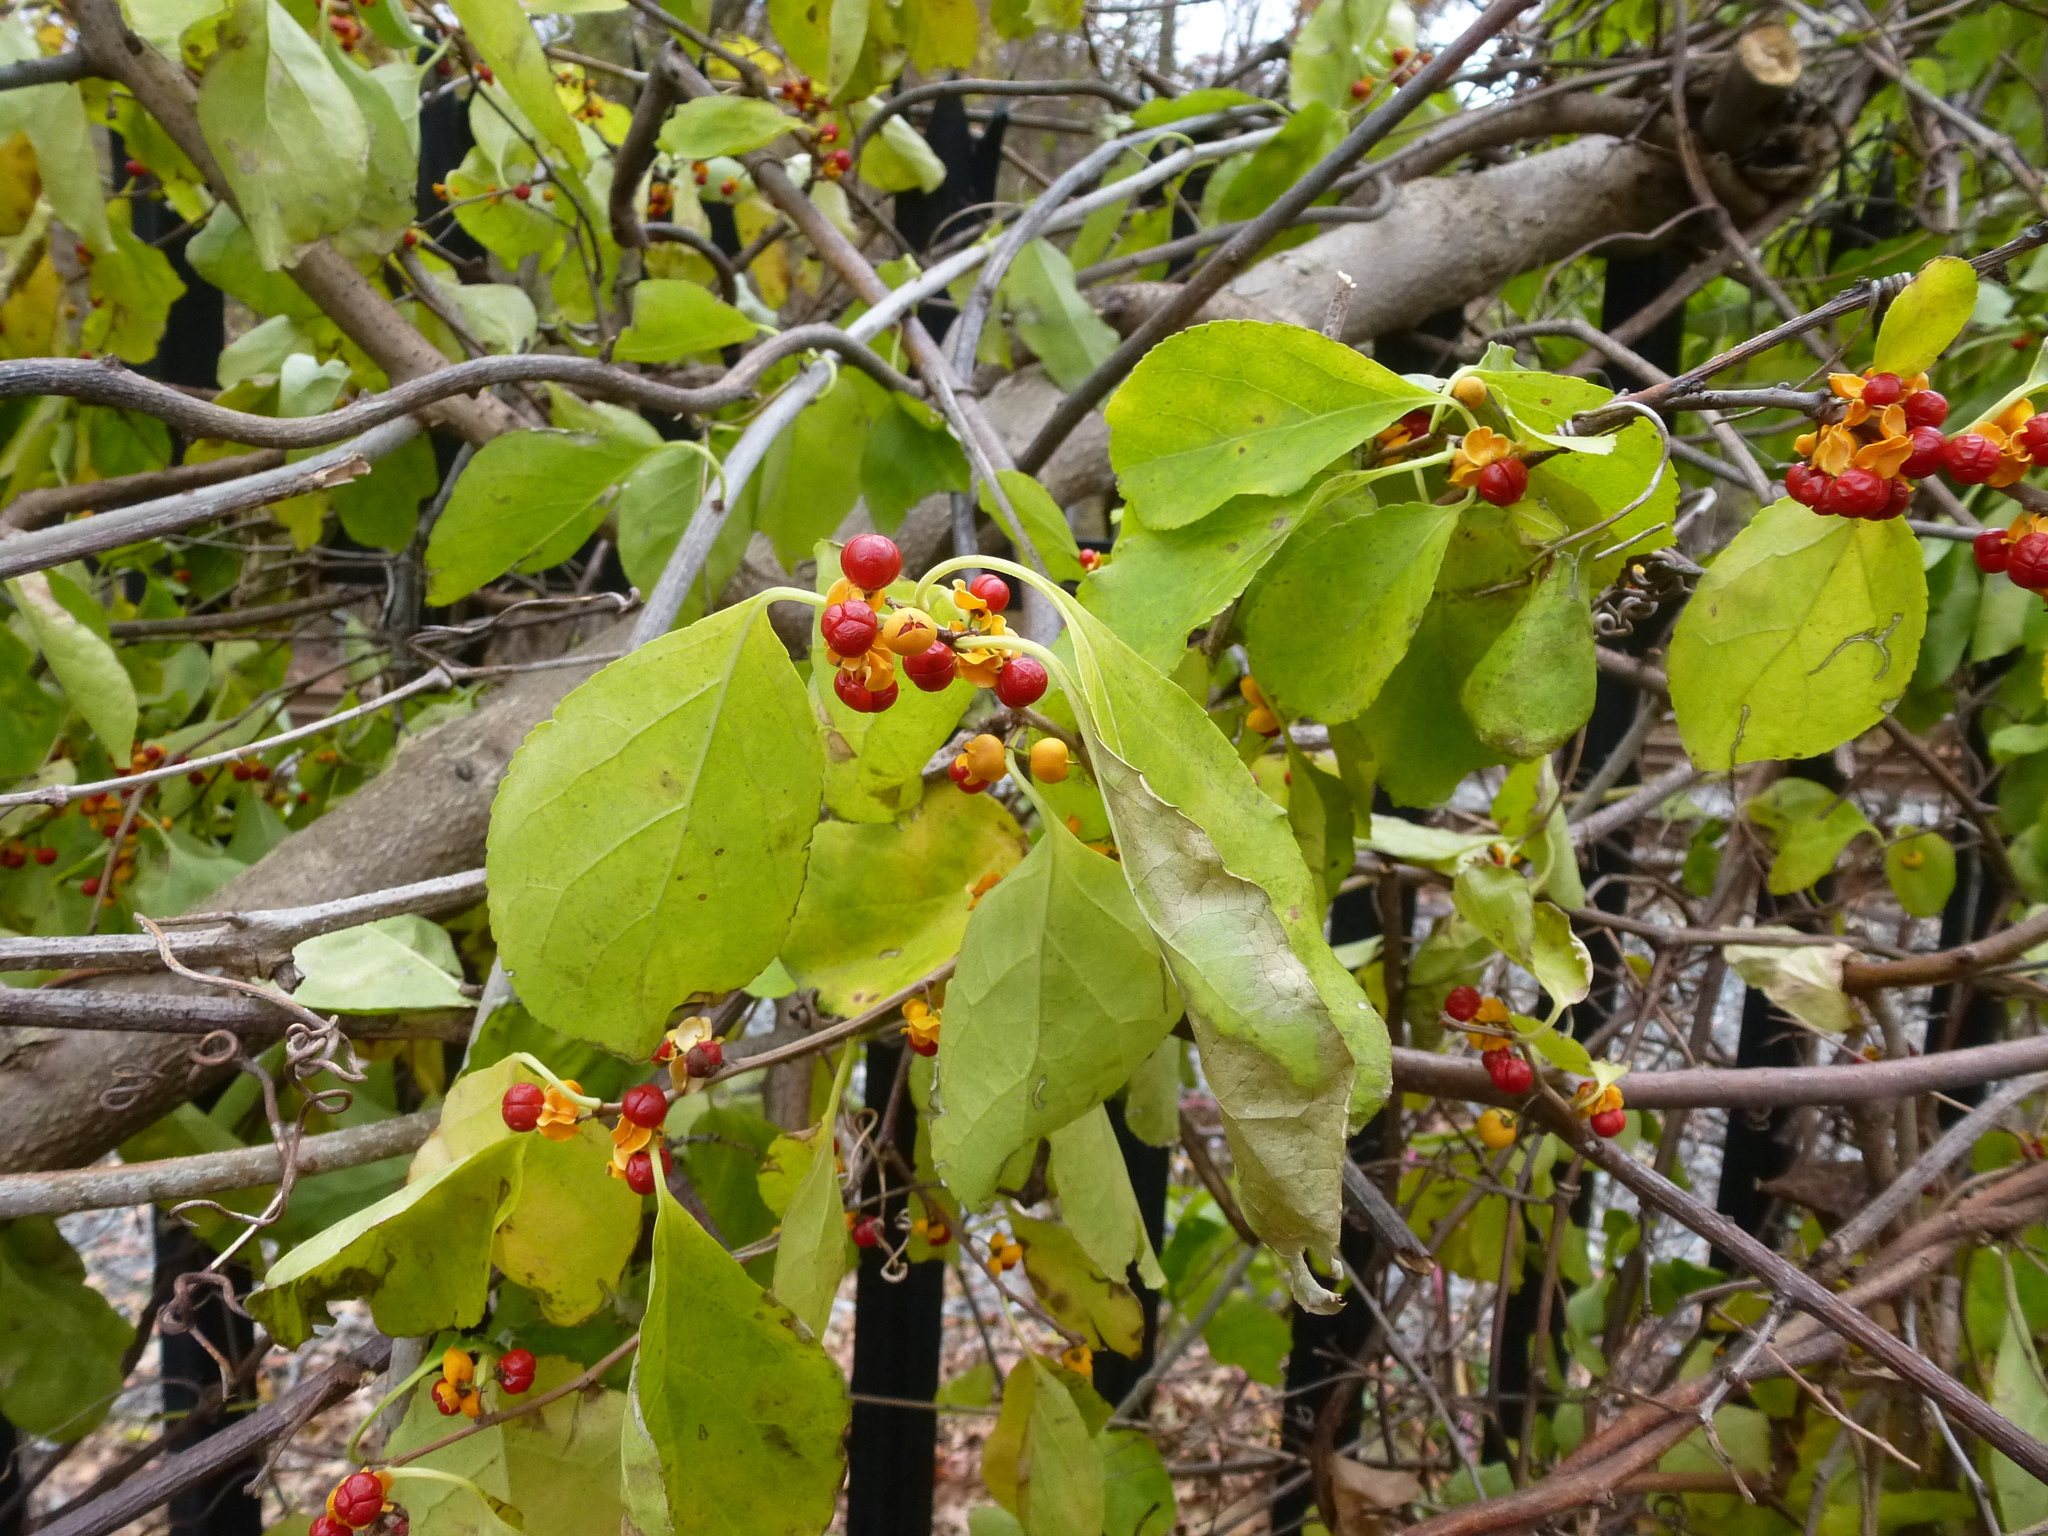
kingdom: Plantae
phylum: Tracheophyta
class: Magnoliopsida
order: Celastrales
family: Celastraceae
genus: Celastrus
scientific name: Celastrus orbiculatus
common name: Oriental bittersweet
